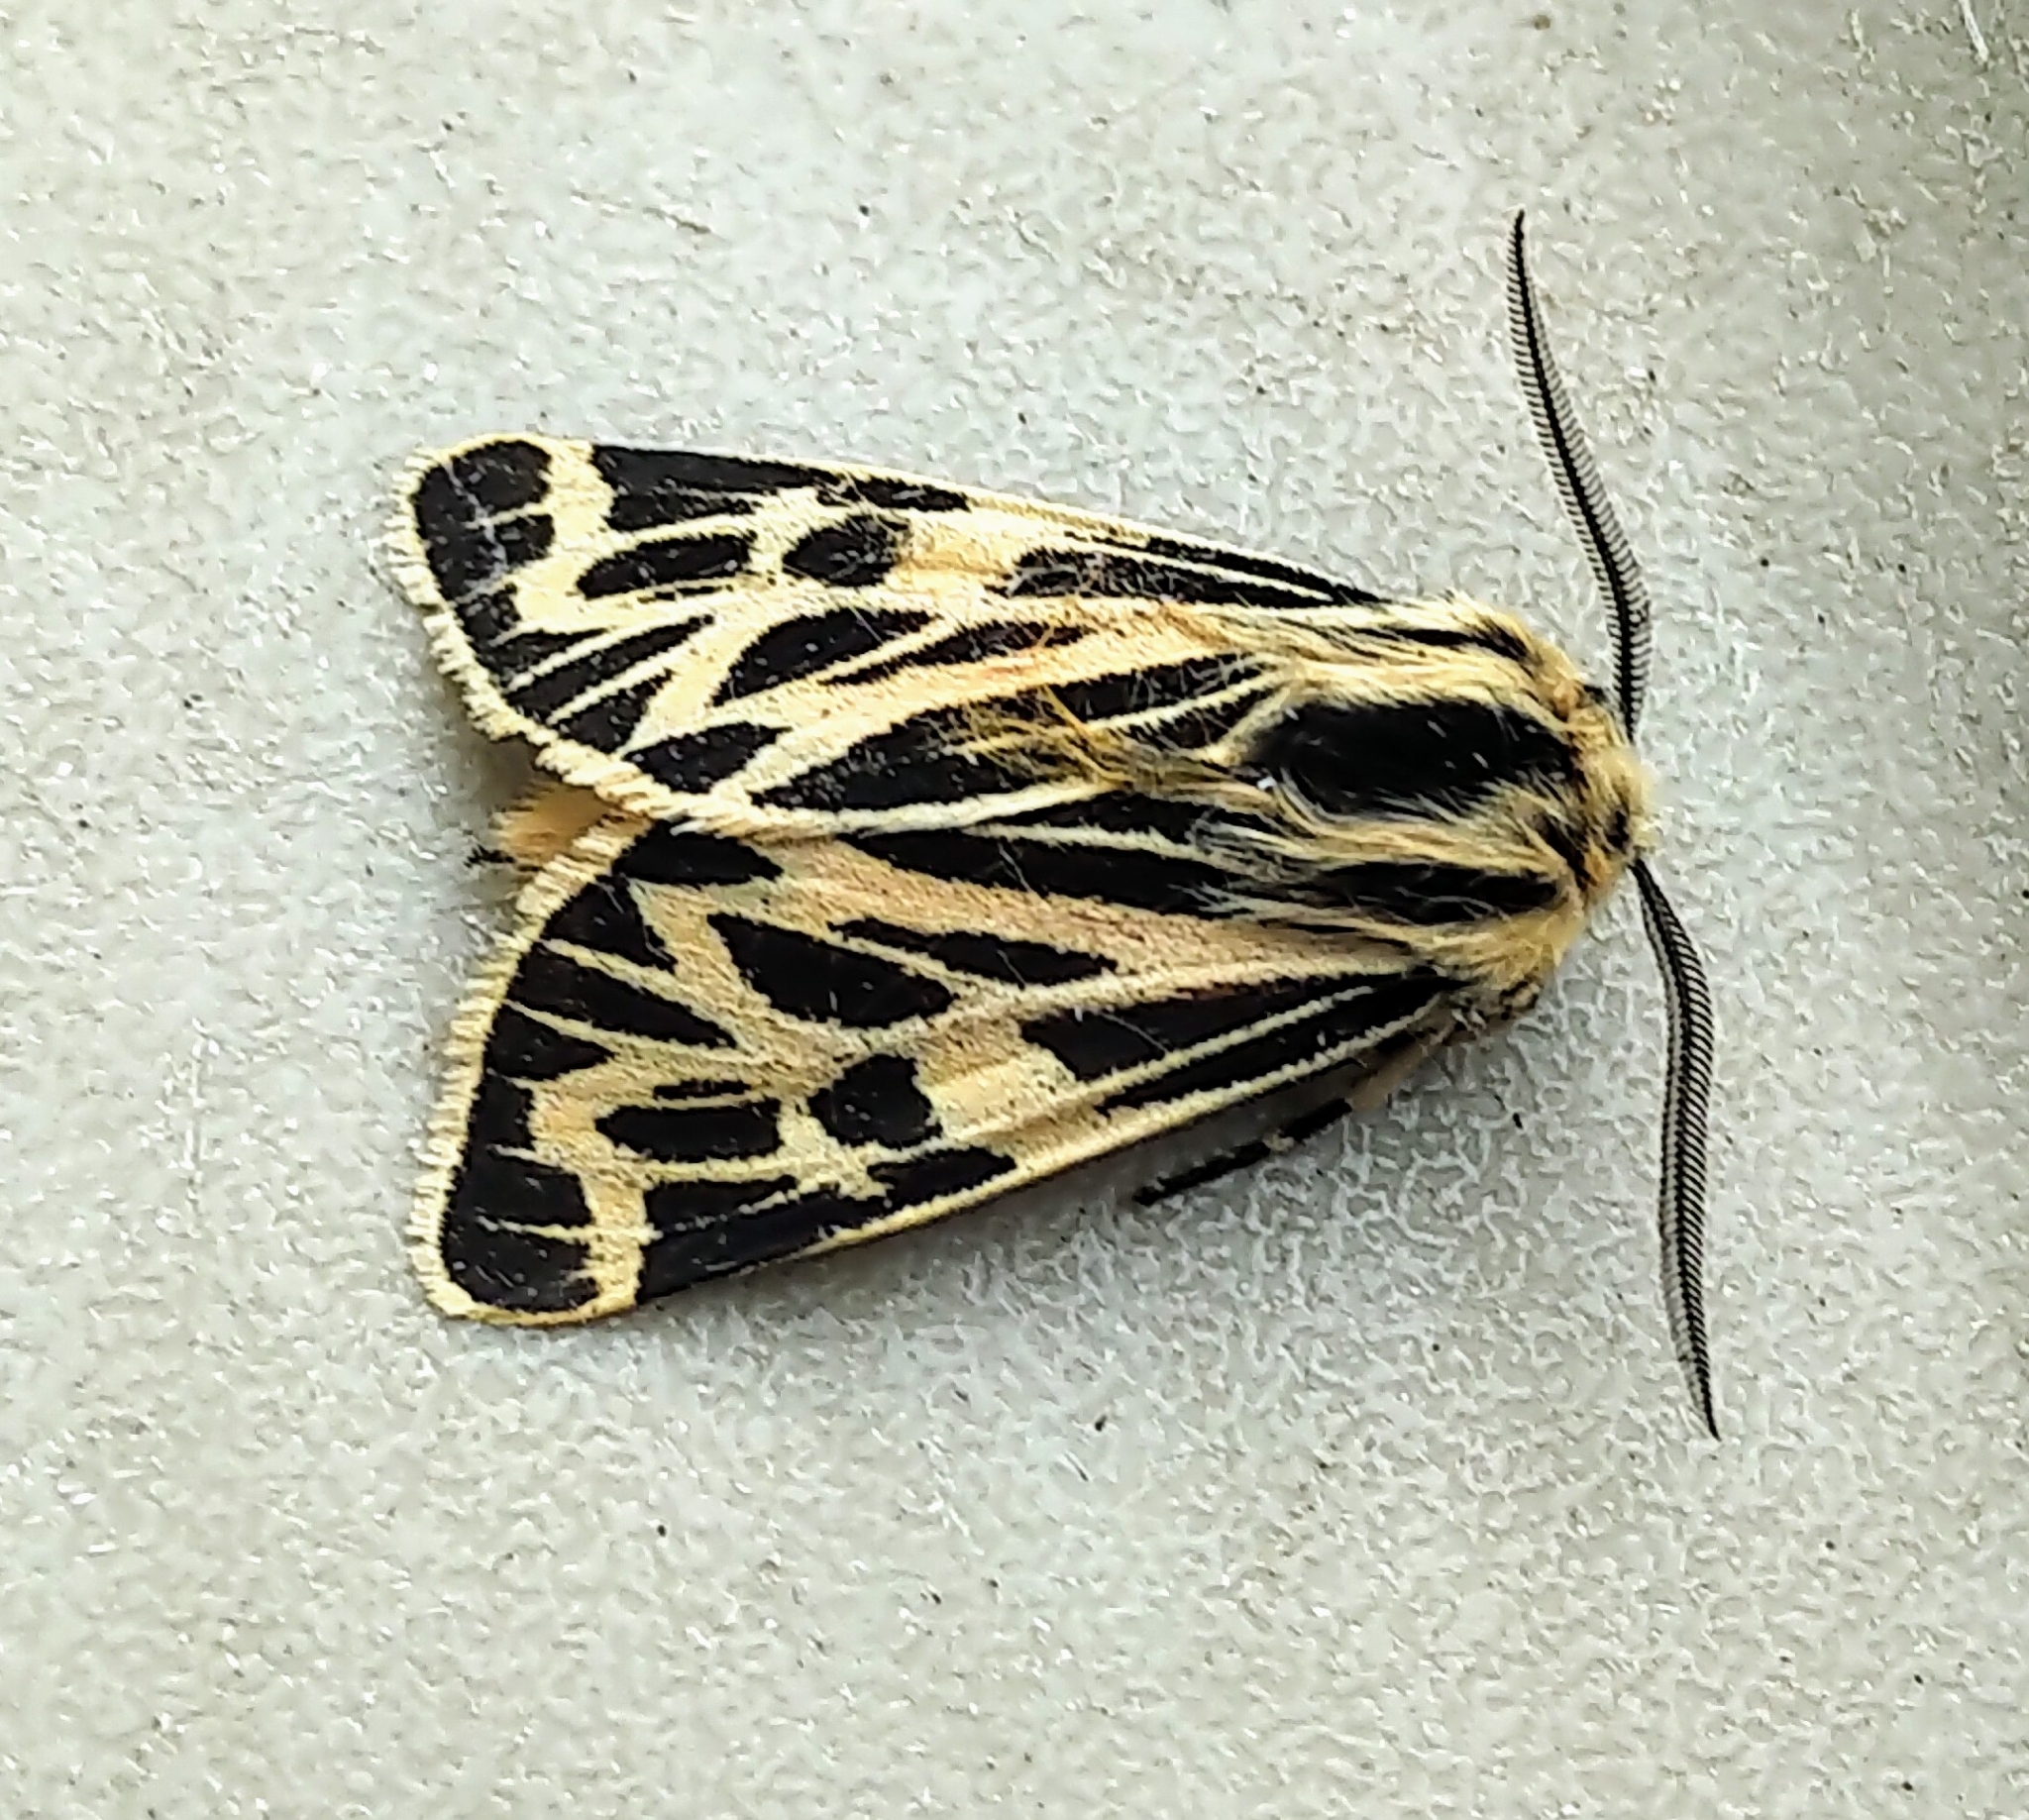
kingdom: Animalia
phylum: Arthropoda
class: Insecta
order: Lepidoptera
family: Erebidae
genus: Apantesis
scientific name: Apantesis obliterata
